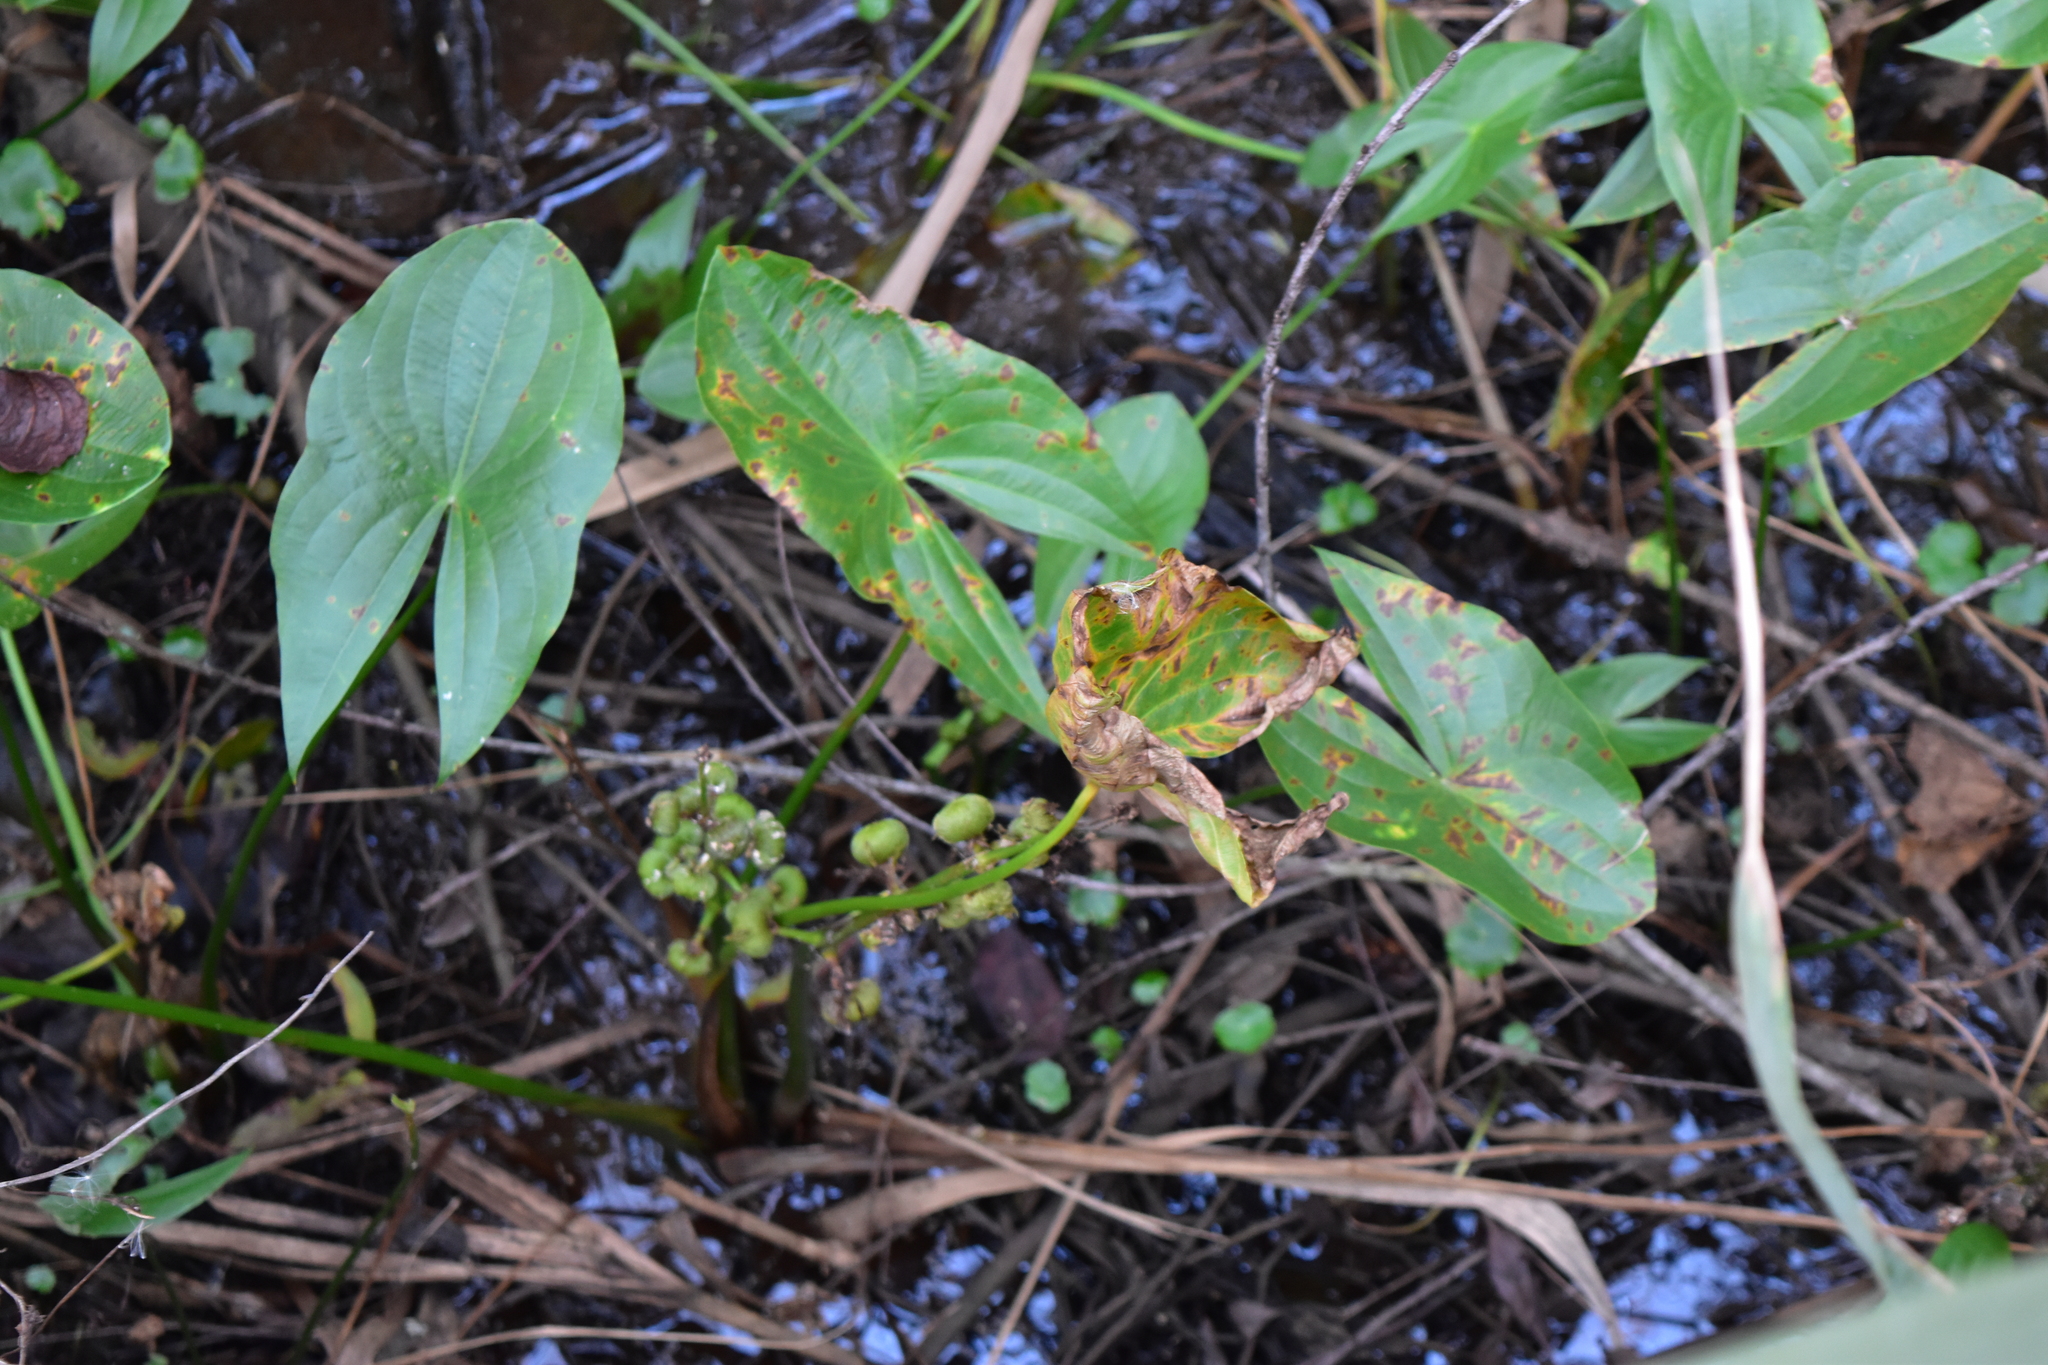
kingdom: Plantae
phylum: Tracheophyta
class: Liliopsida
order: Alismatales
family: Alismataceae
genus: Sagittaria
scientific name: Sagittaria latifolia
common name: Duck-potato
